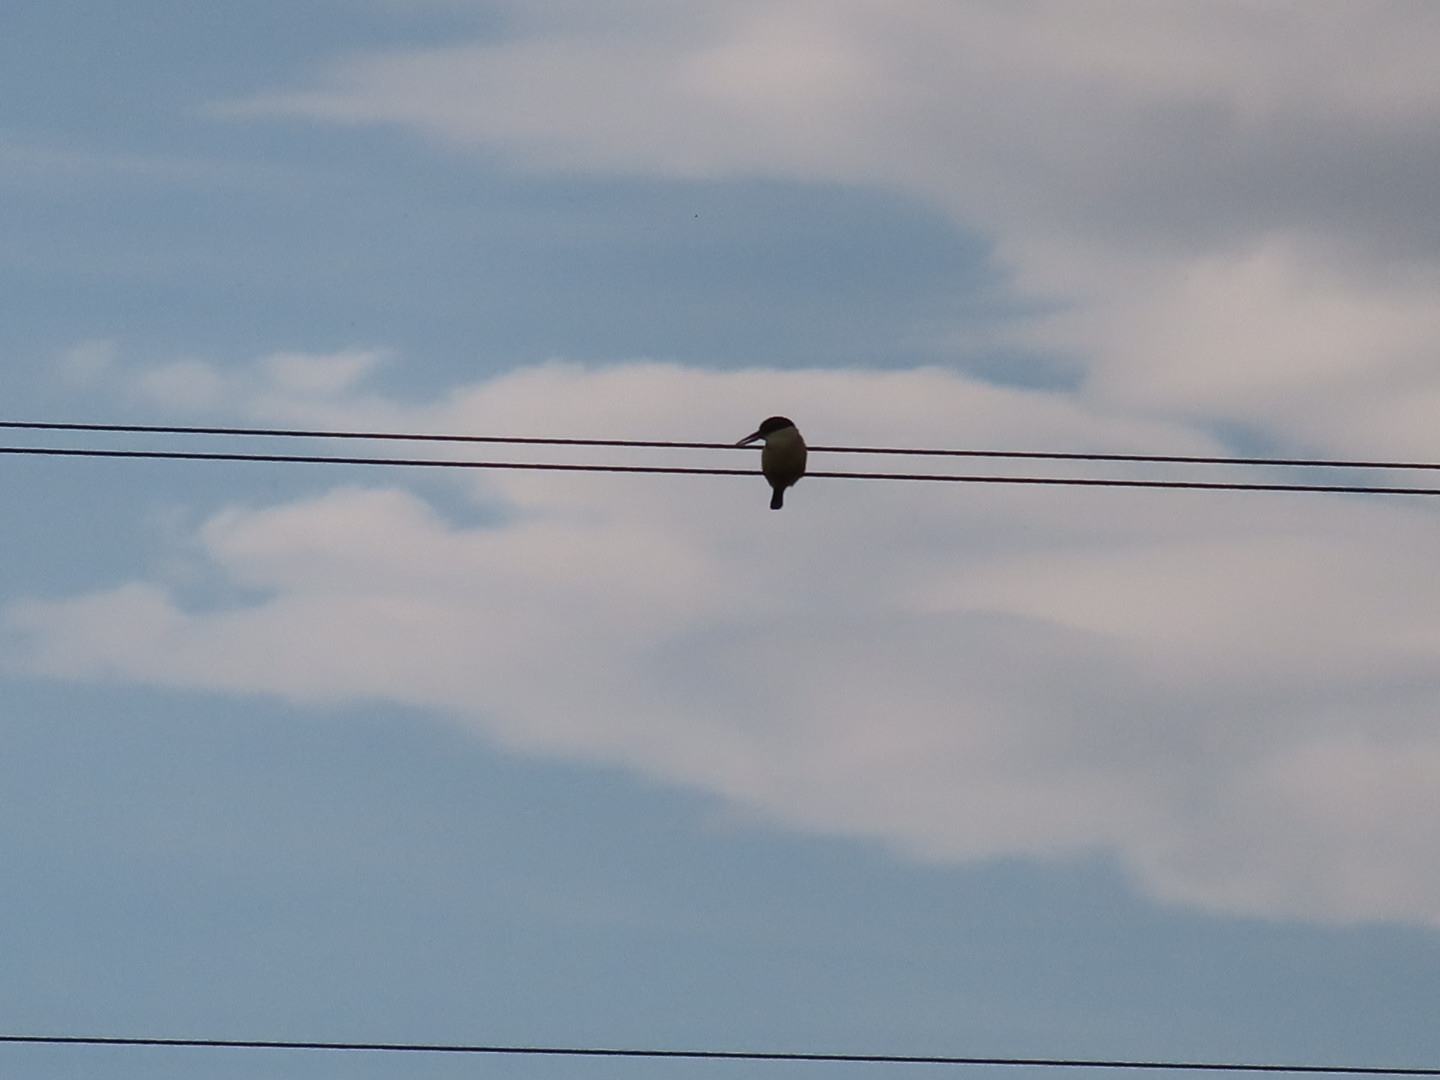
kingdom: Animalia
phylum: Chordata
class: Aves
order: Coraciiformes
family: Alcedinidae
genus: Todiramphus
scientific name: Todiramphus sanctus
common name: Sacred kingfisher
